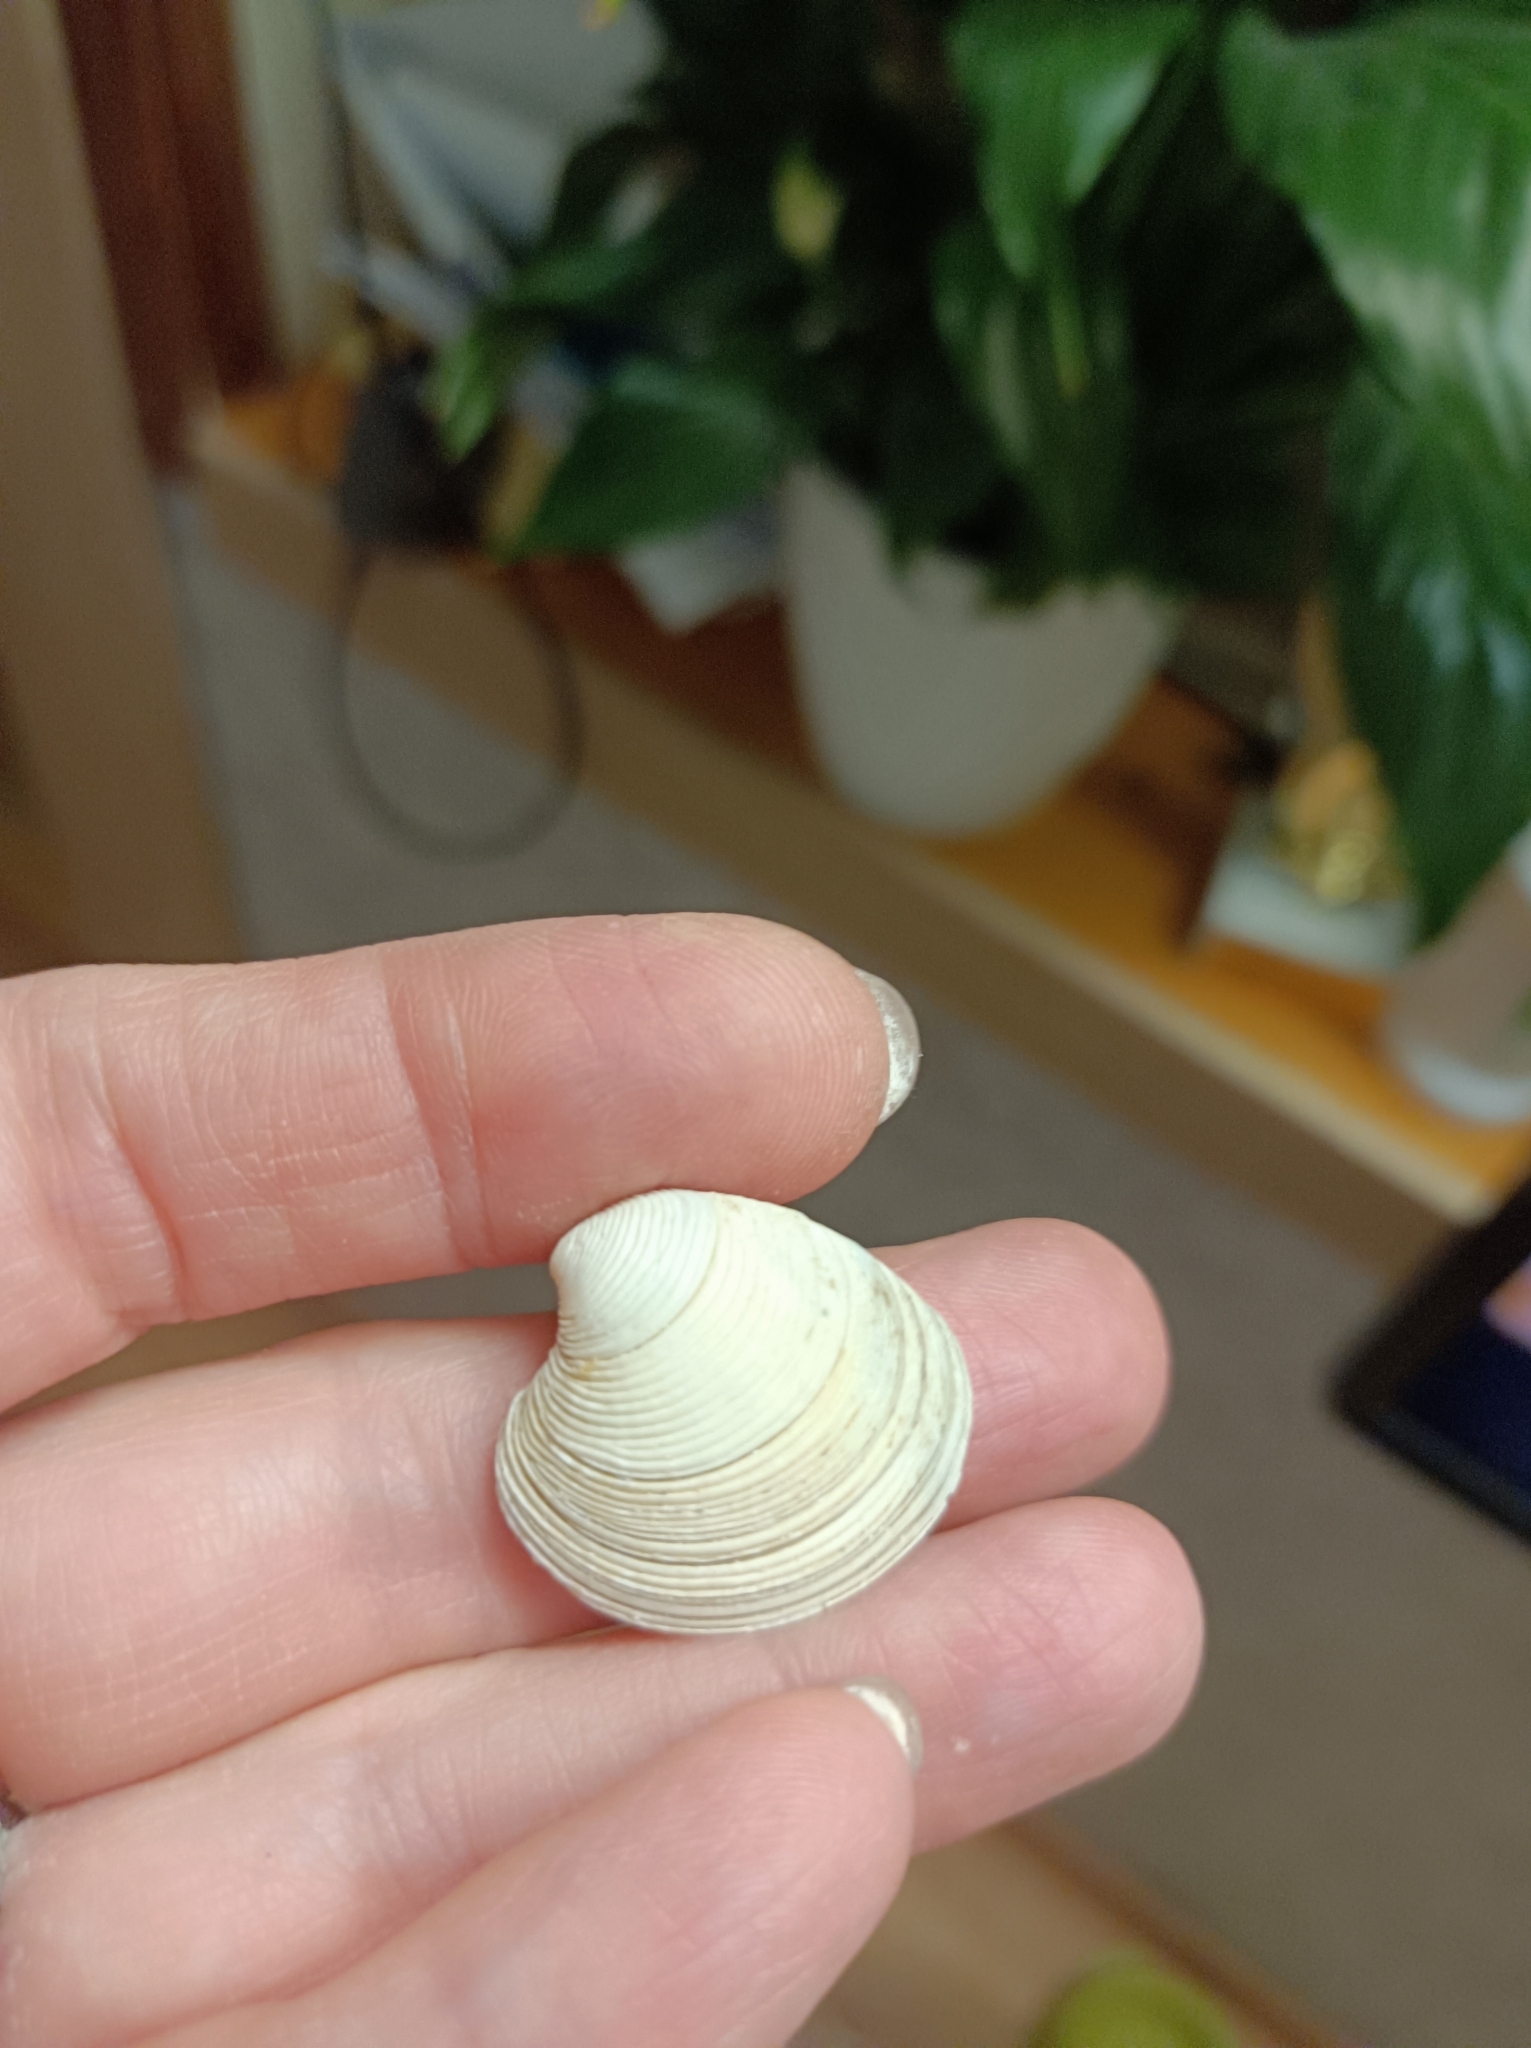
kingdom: Animalia
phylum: Mollusca
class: Bivalvia
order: Venerida
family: Veneridae
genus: Chamelea
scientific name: Chamelea gallina
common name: Chicken venus
